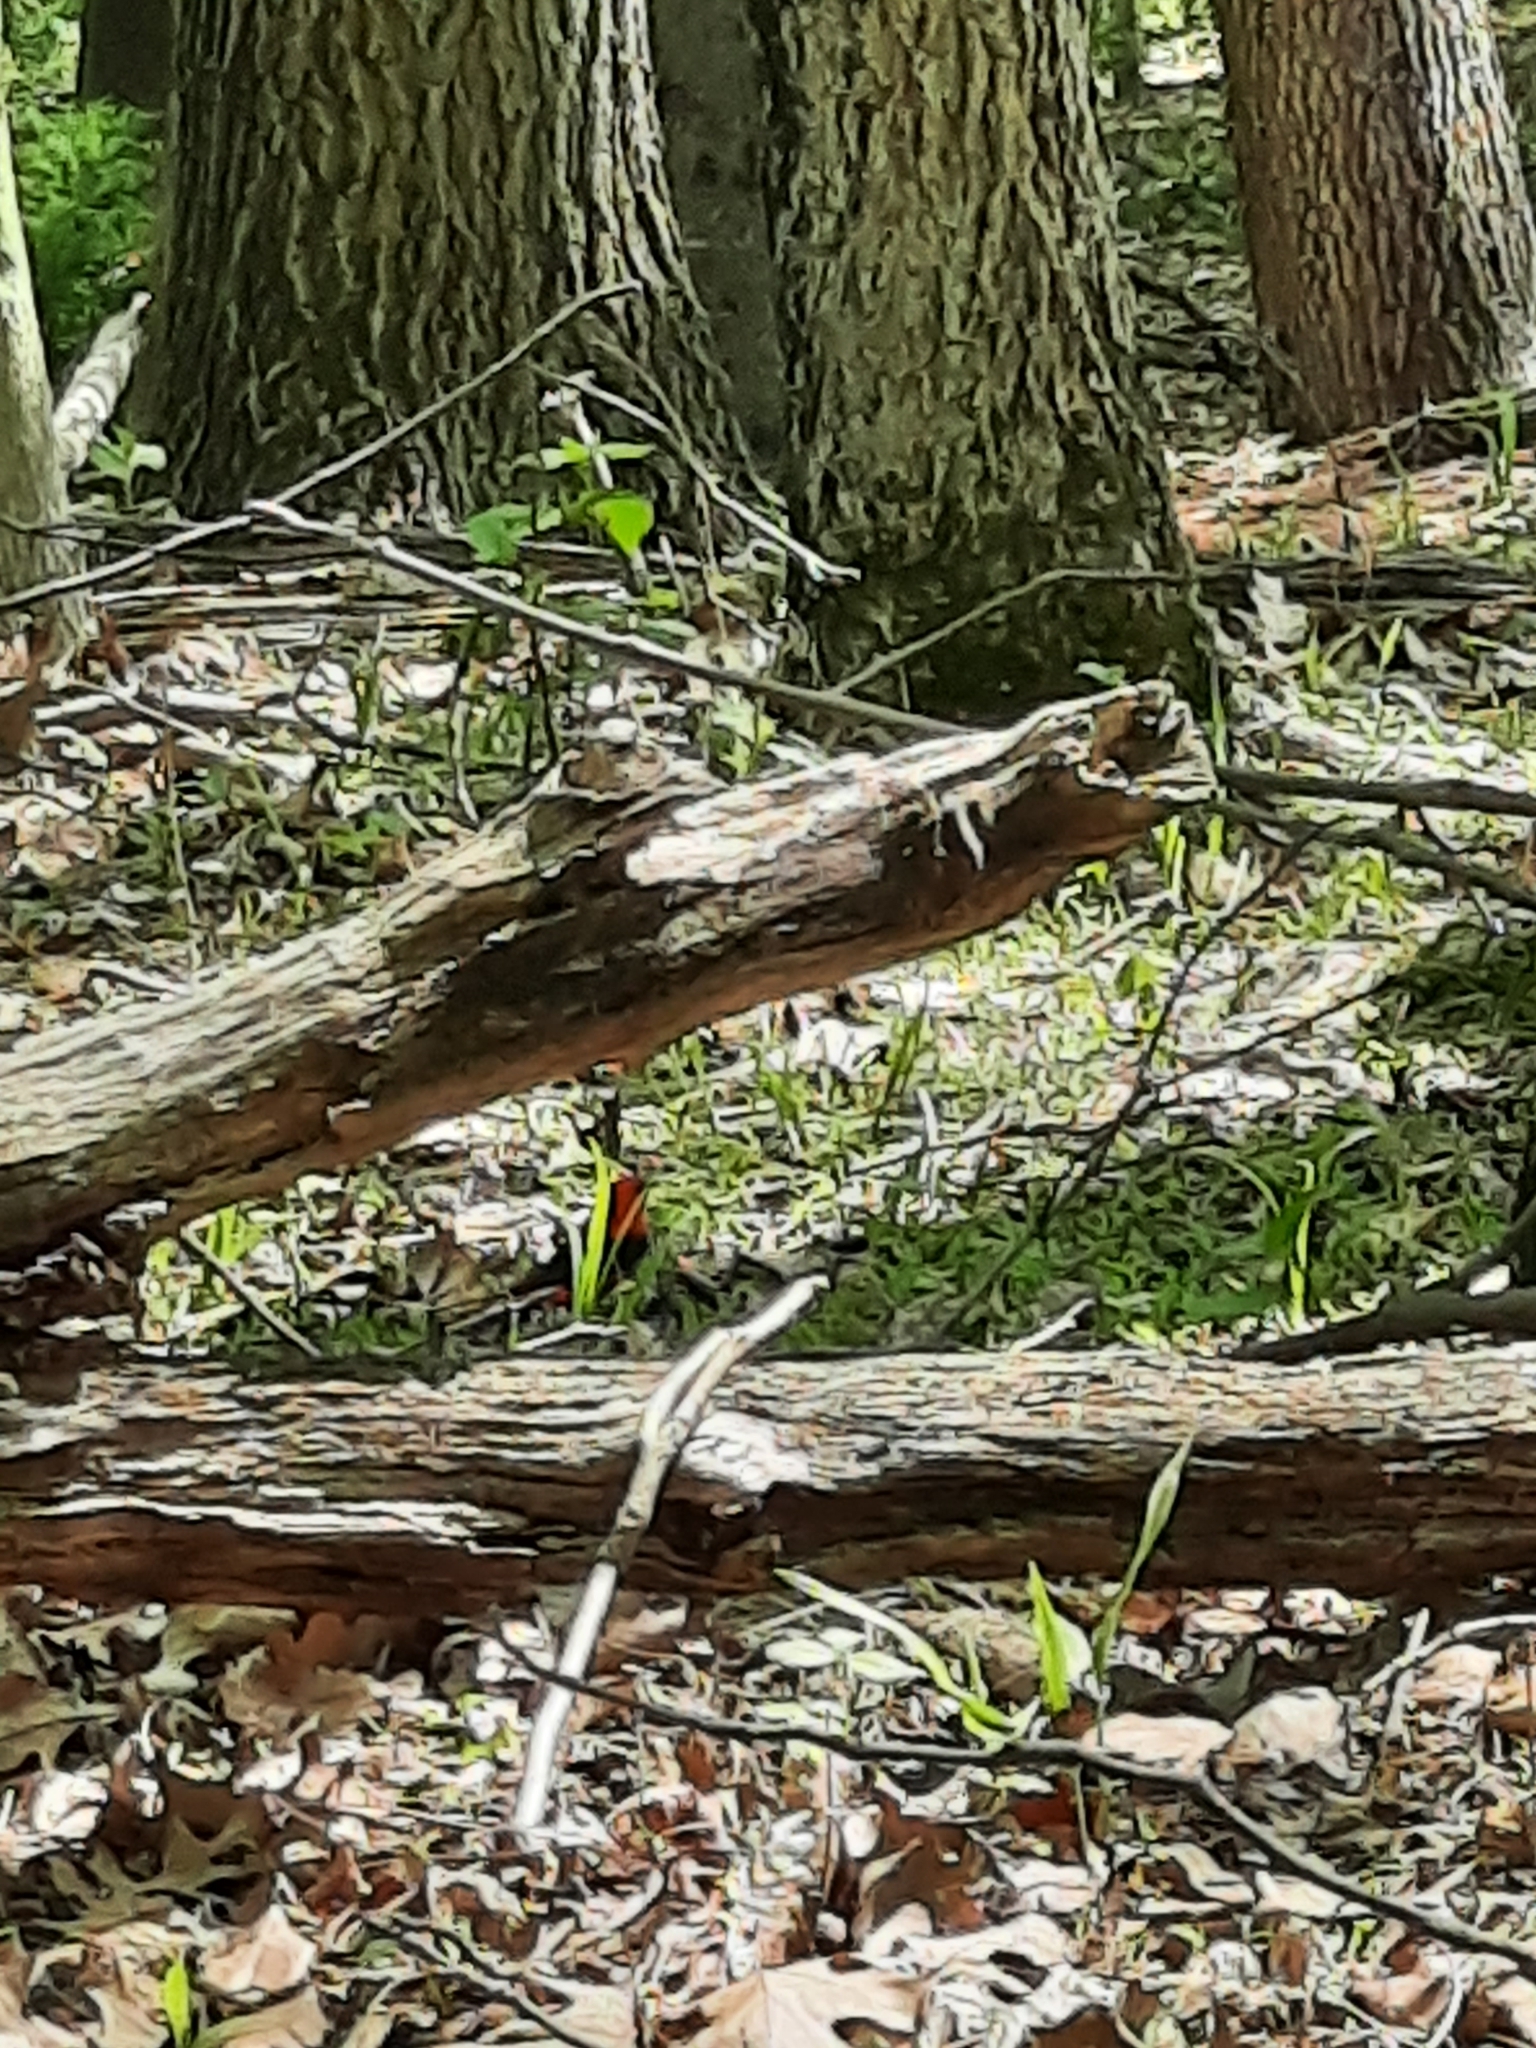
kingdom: Animalia
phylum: Chordata
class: Aves
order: Passeriformes
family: Cardinalidae
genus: Piranga
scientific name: Piranga olivacea
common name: Scarlet tanager
